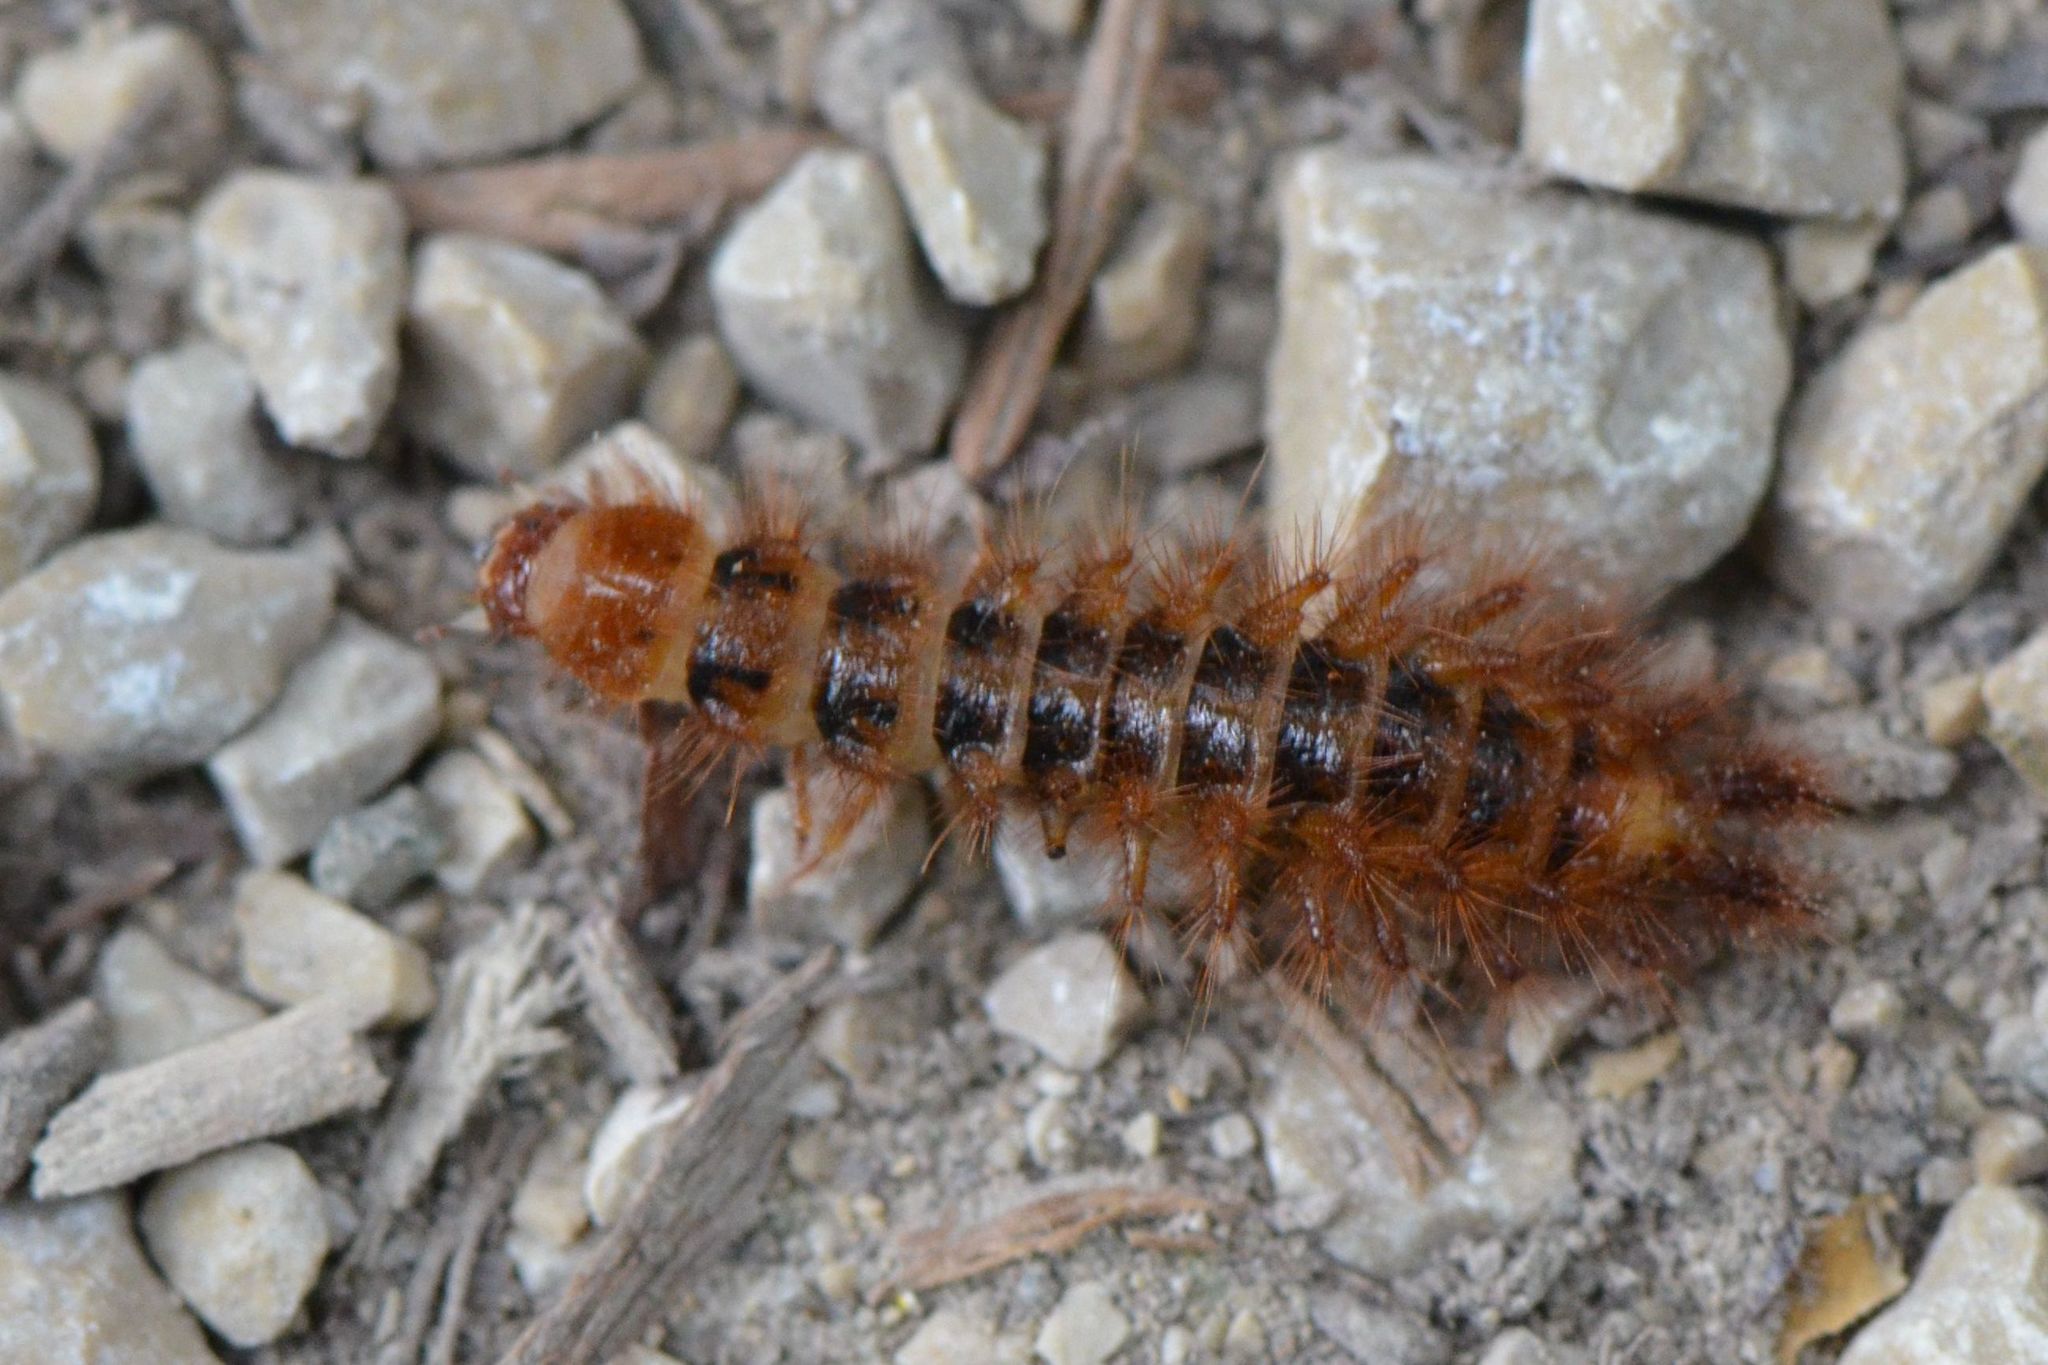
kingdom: Animalia
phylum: Arthropoda
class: Insecta
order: Coleoptera
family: Drilidae
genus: Drilus
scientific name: Drilus flavescens
